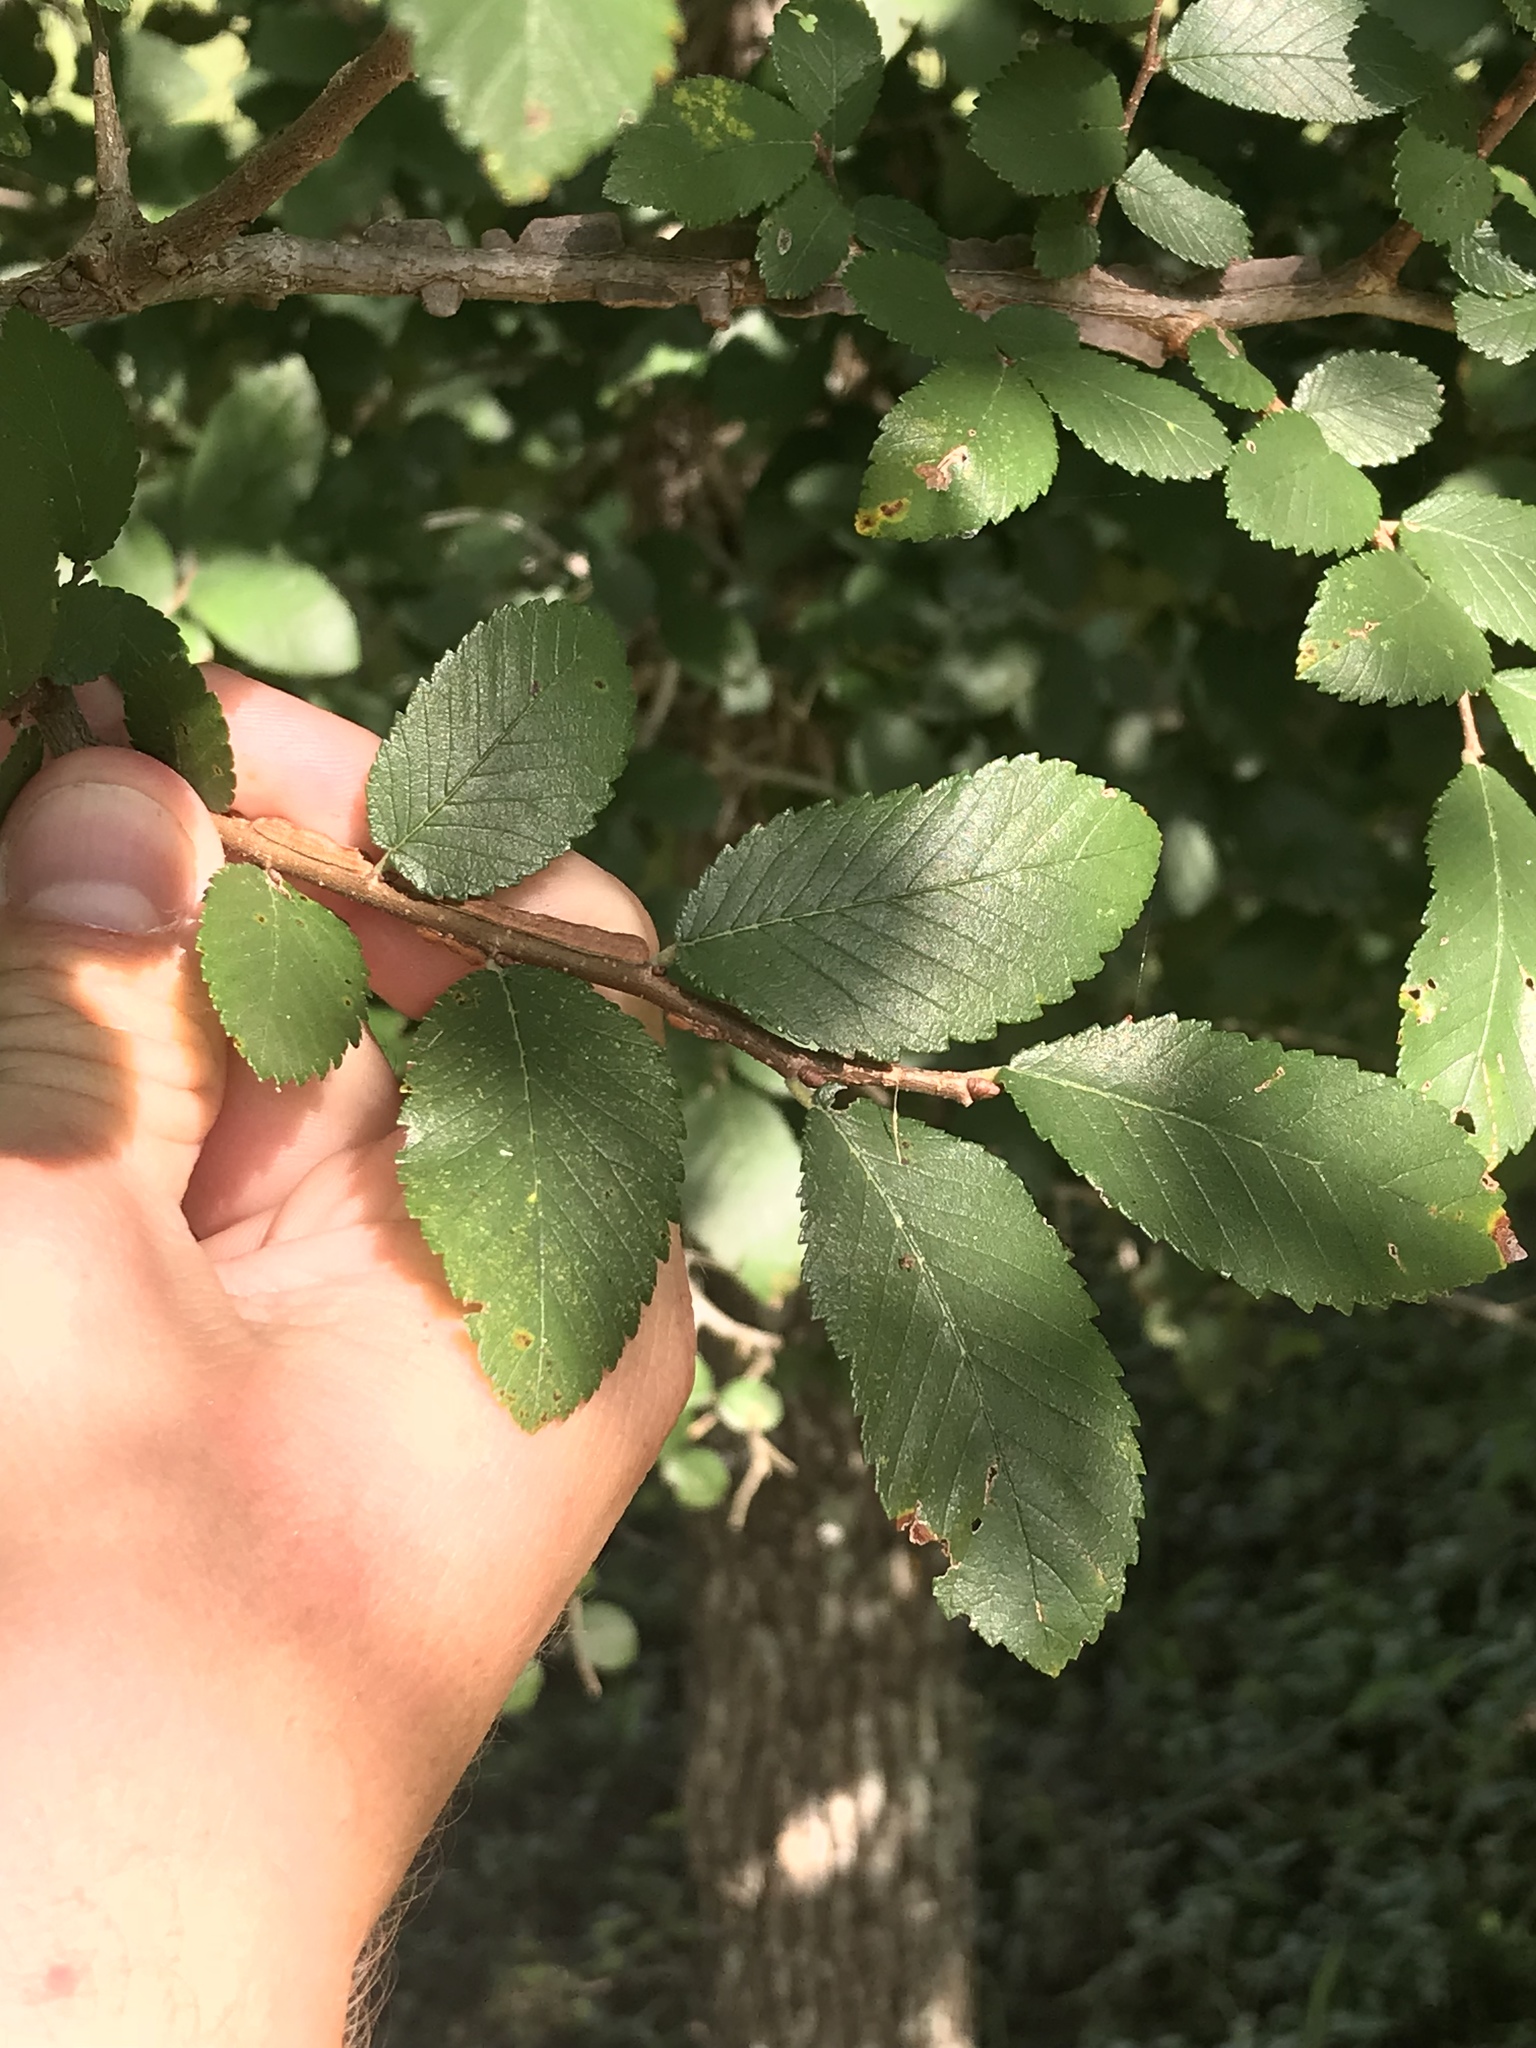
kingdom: Plantae
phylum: Tracheophyta
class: Magnoliopsida
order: Rosales
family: Ulmaceae
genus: Ulmus
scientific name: Ulmus crassifolia
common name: Basket elm
